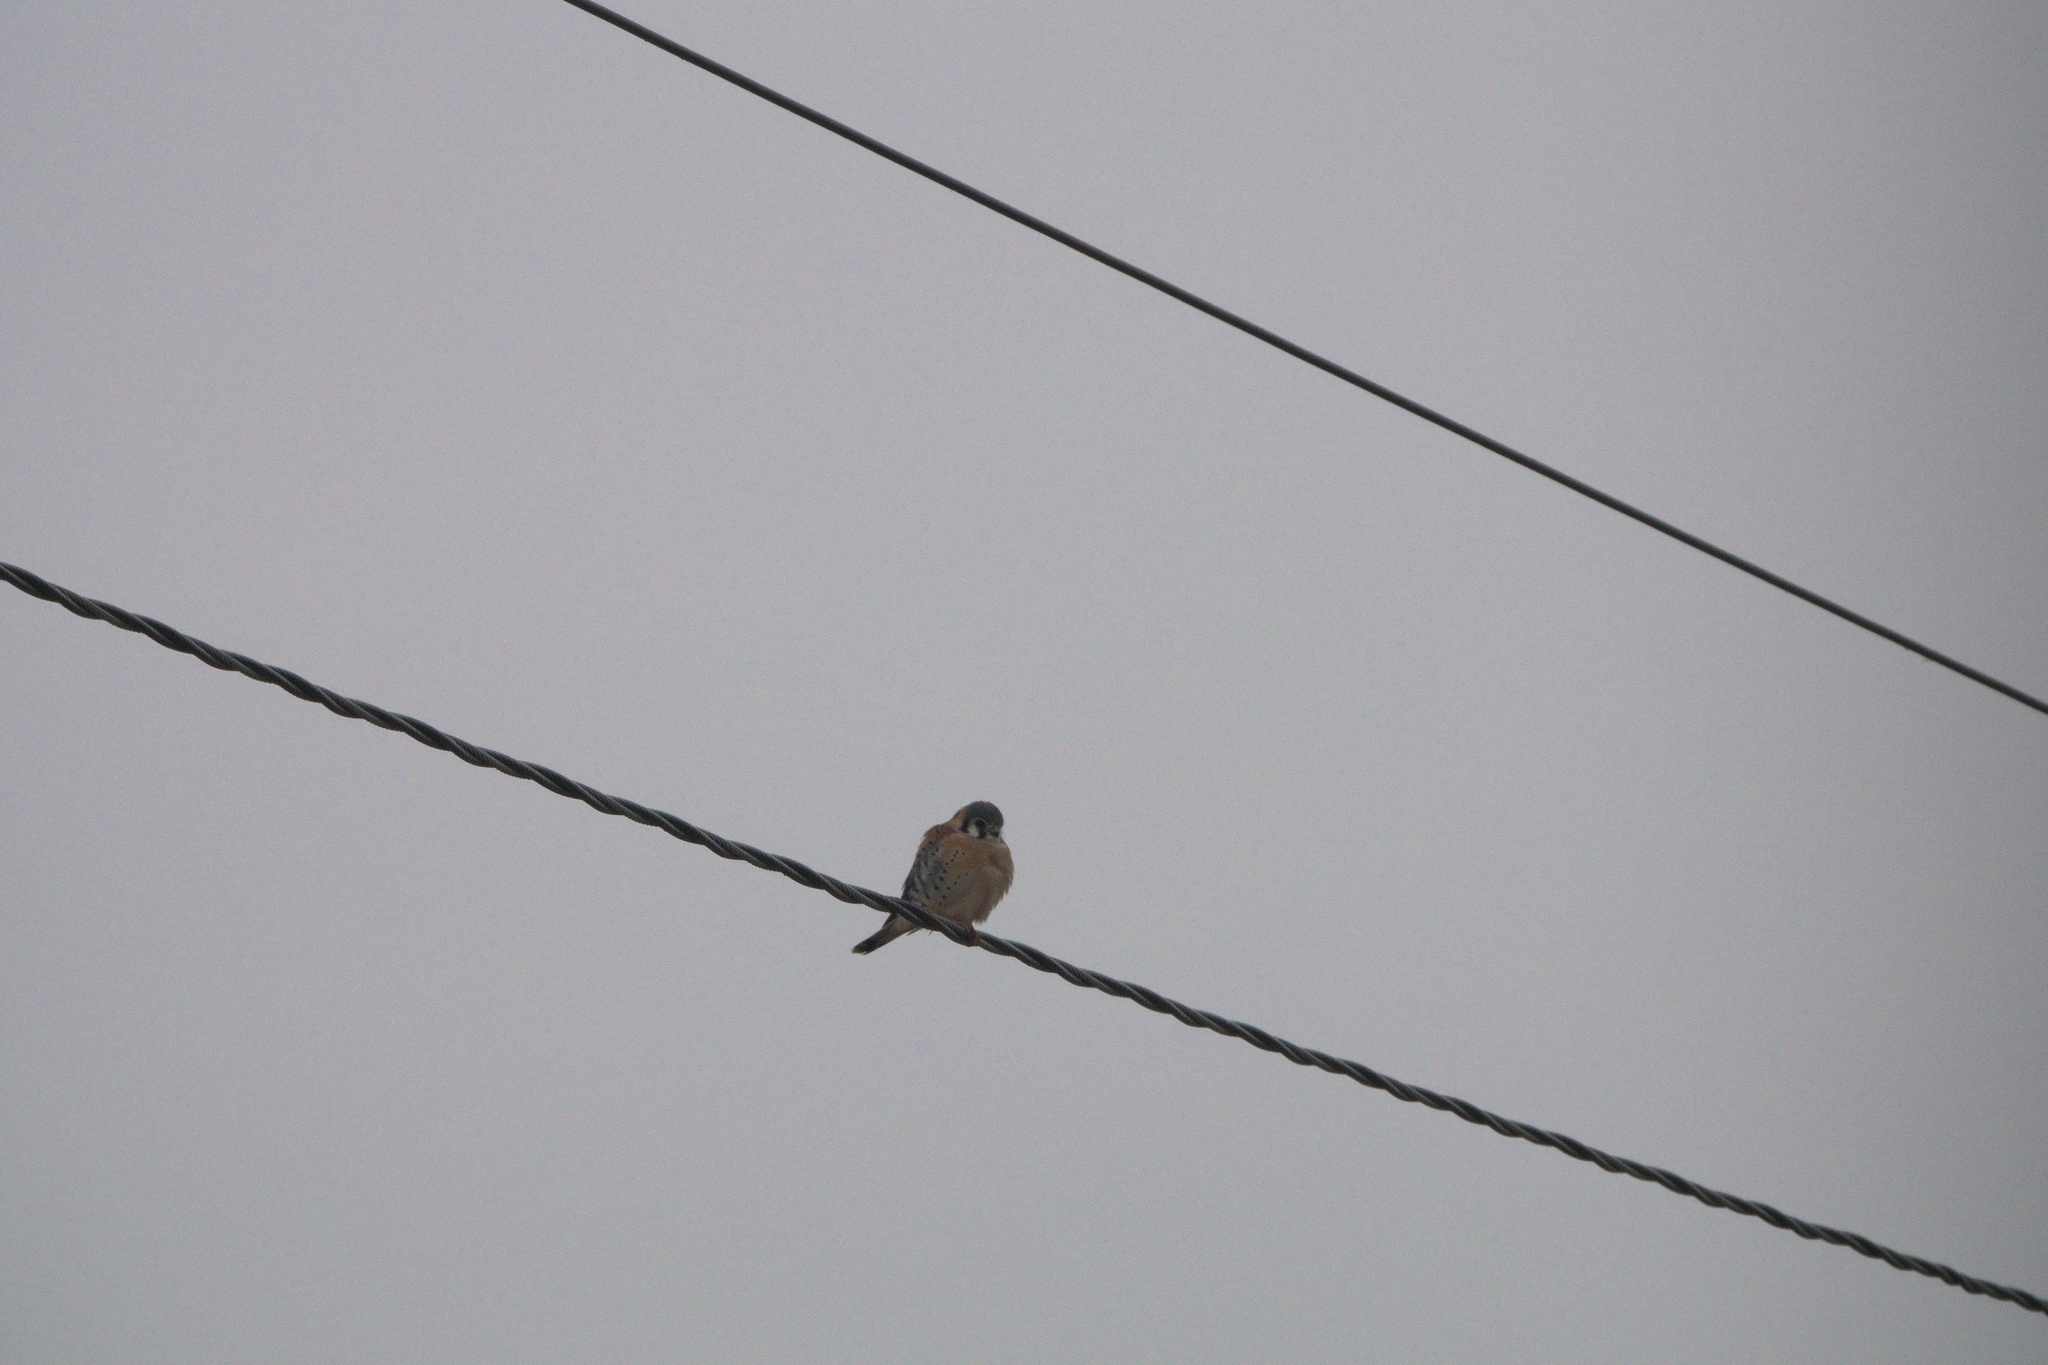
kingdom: Animalia
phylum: Chordata
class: Aves
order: Falconiformes
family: Falconidae
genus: Falco
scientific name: Falco sparverius
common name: American kestrel
